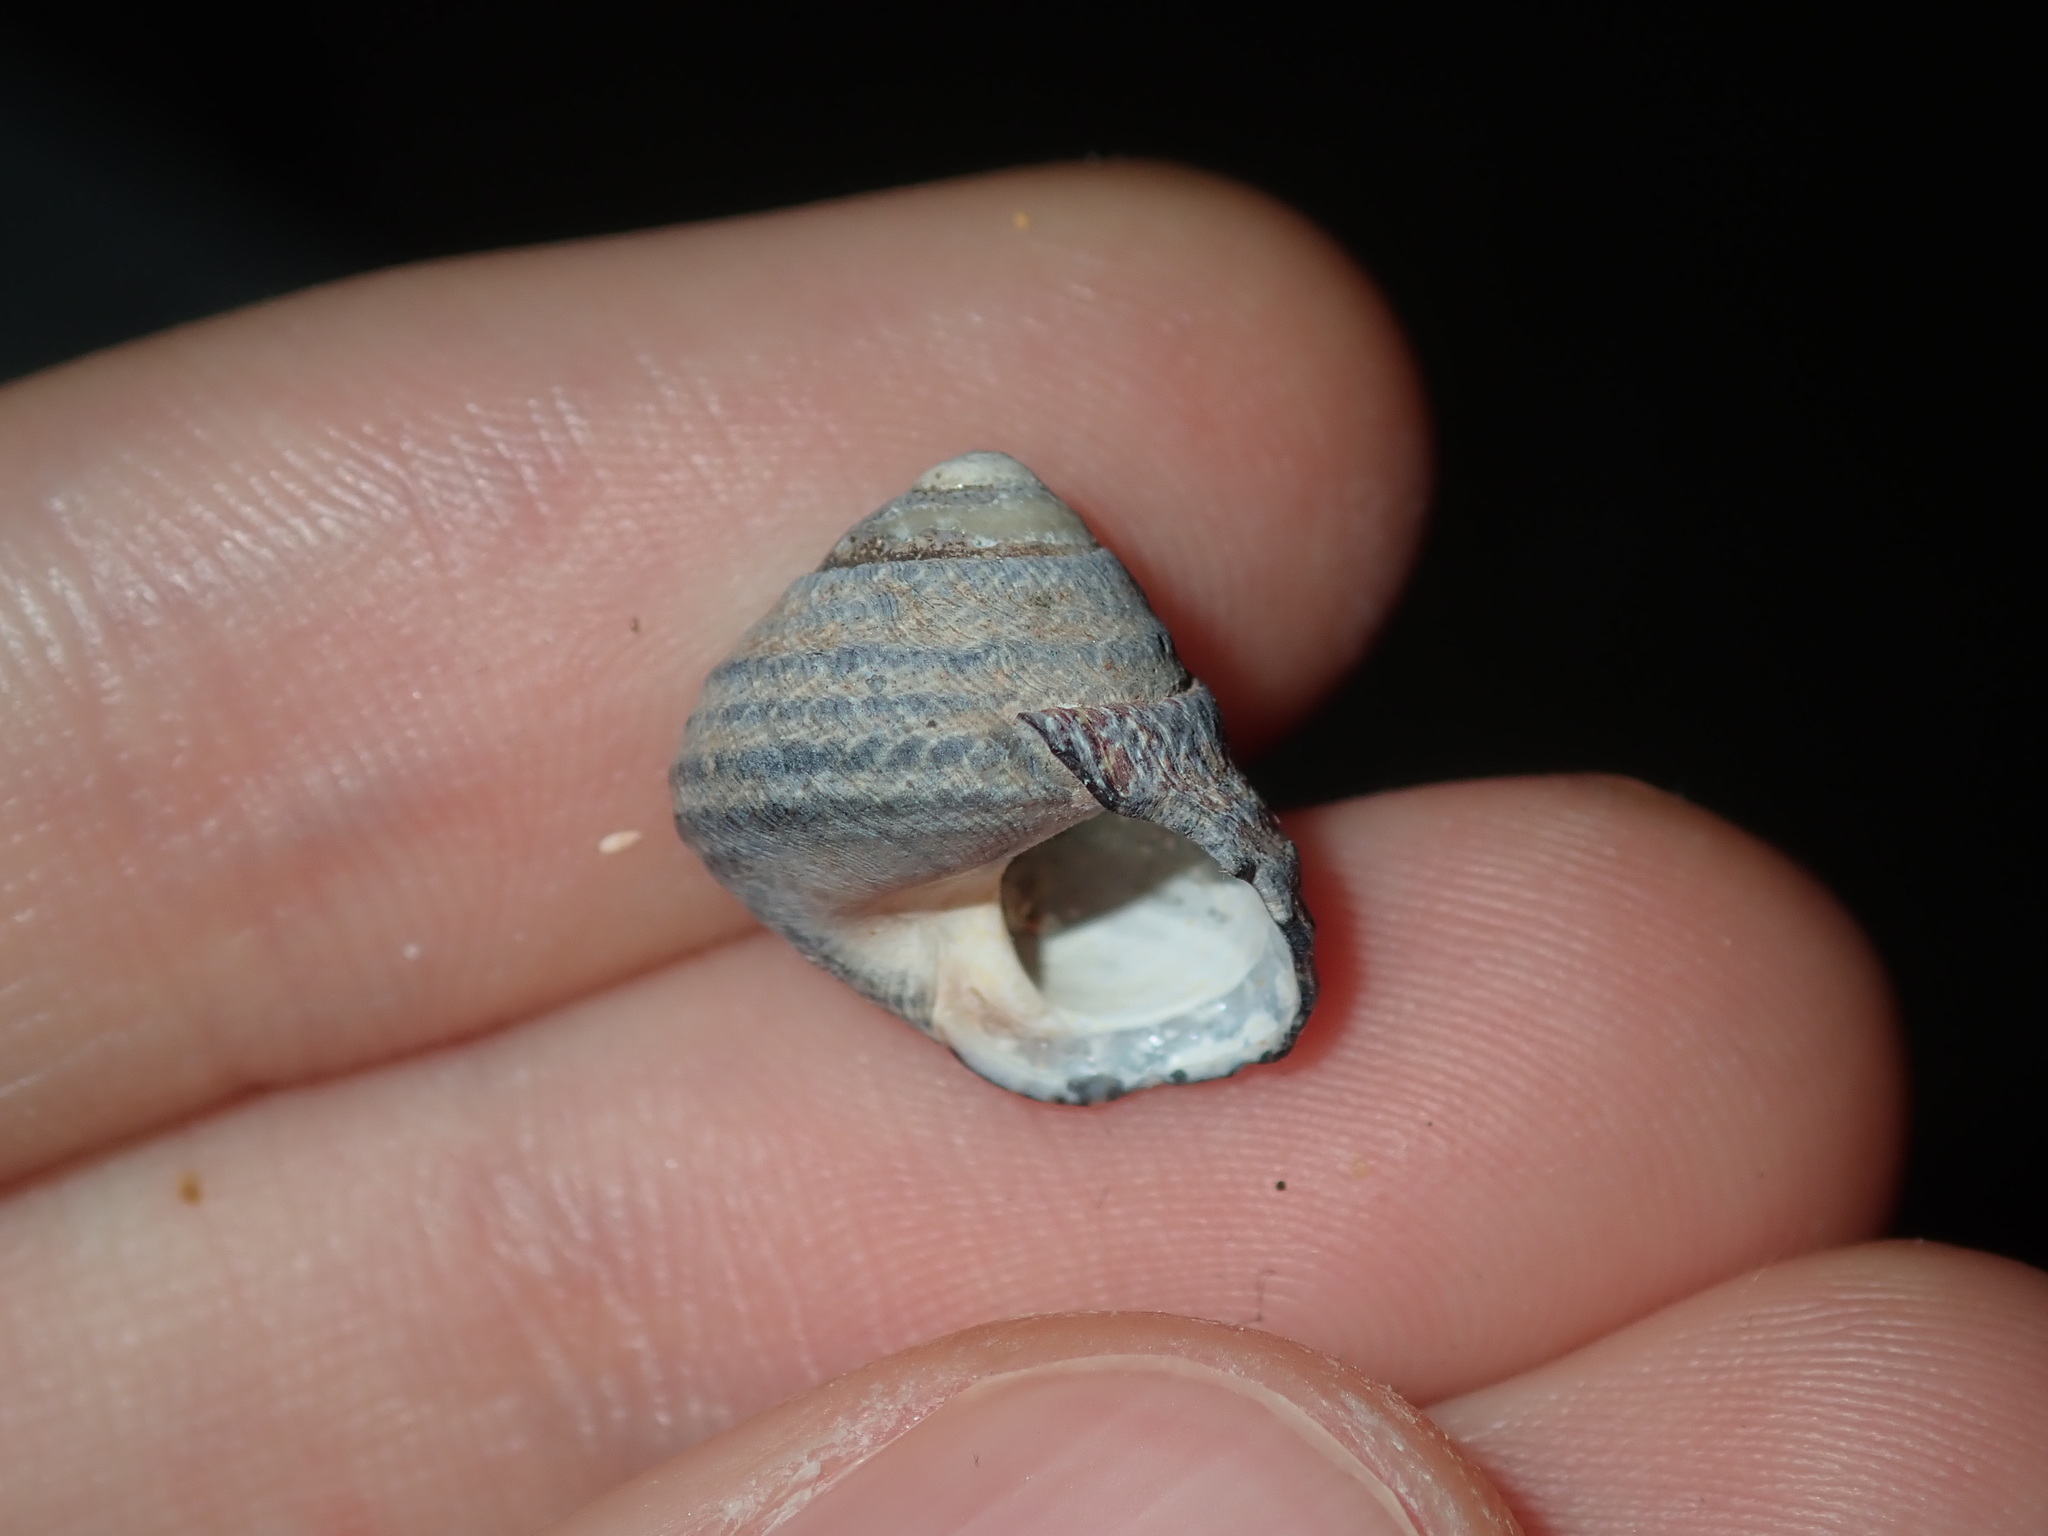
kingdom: Animalia
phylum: Mollusca
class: Gastropoda
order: Trochida
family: Trochidae
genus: Austrocochlea
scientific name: Austrocochlea constricta
